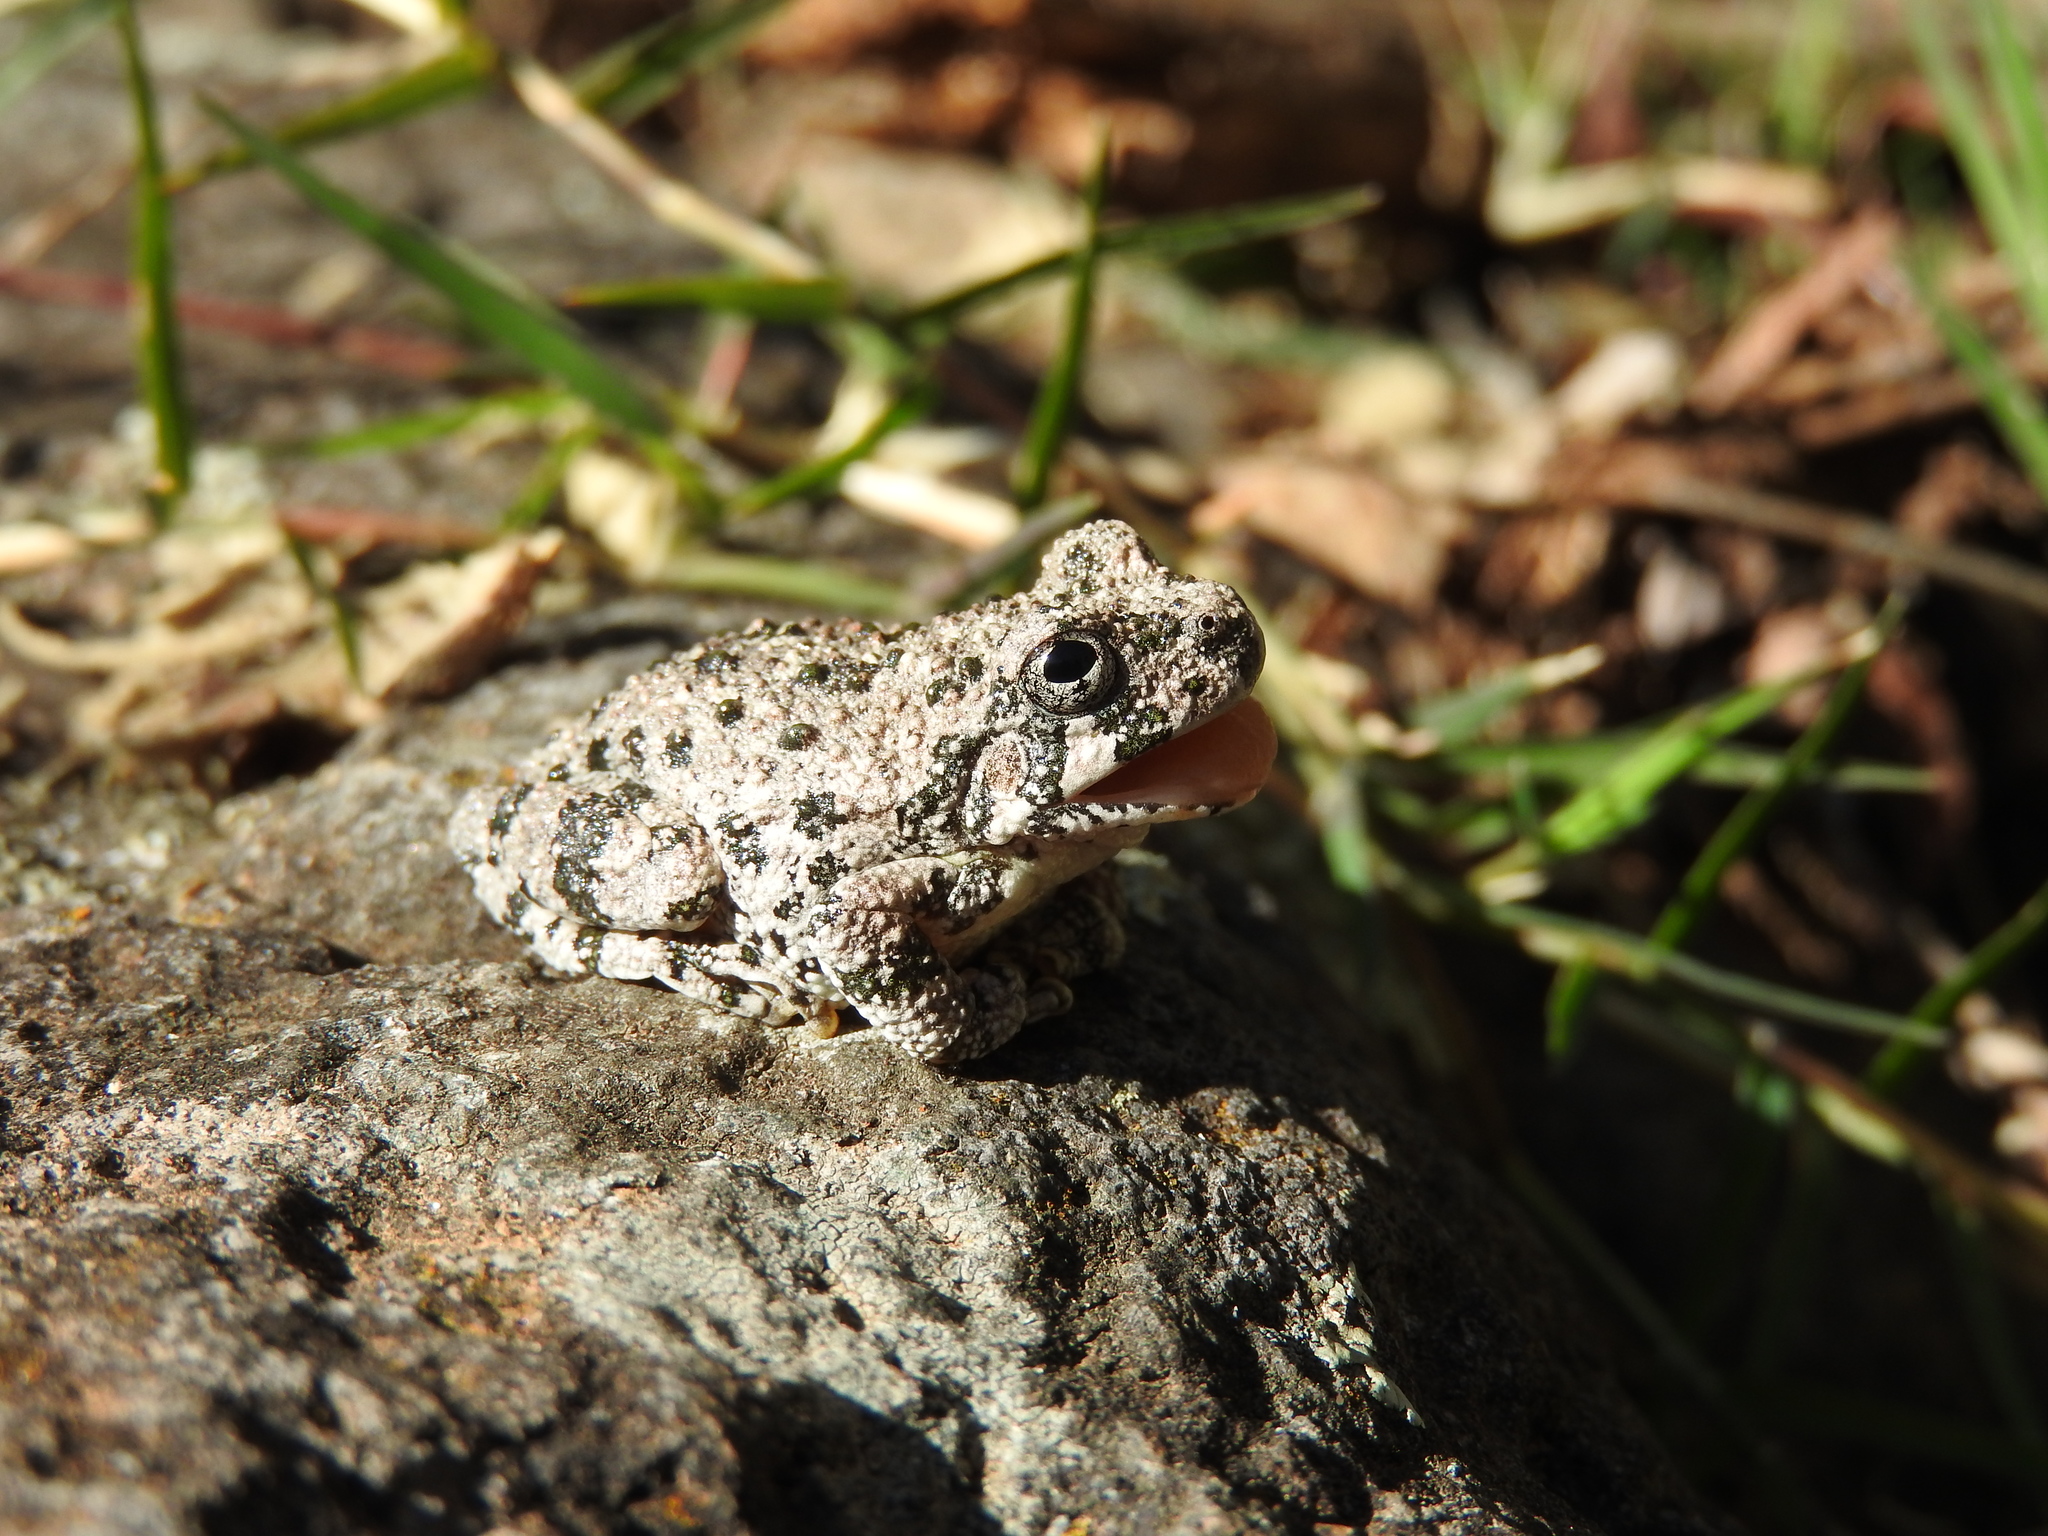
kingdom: Animalia
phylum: Chordata
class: Amphibia
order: Anura
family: Hylidae
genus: Dryophytes
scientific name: Dryophytes arenicolor
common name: Canyon treefrog
